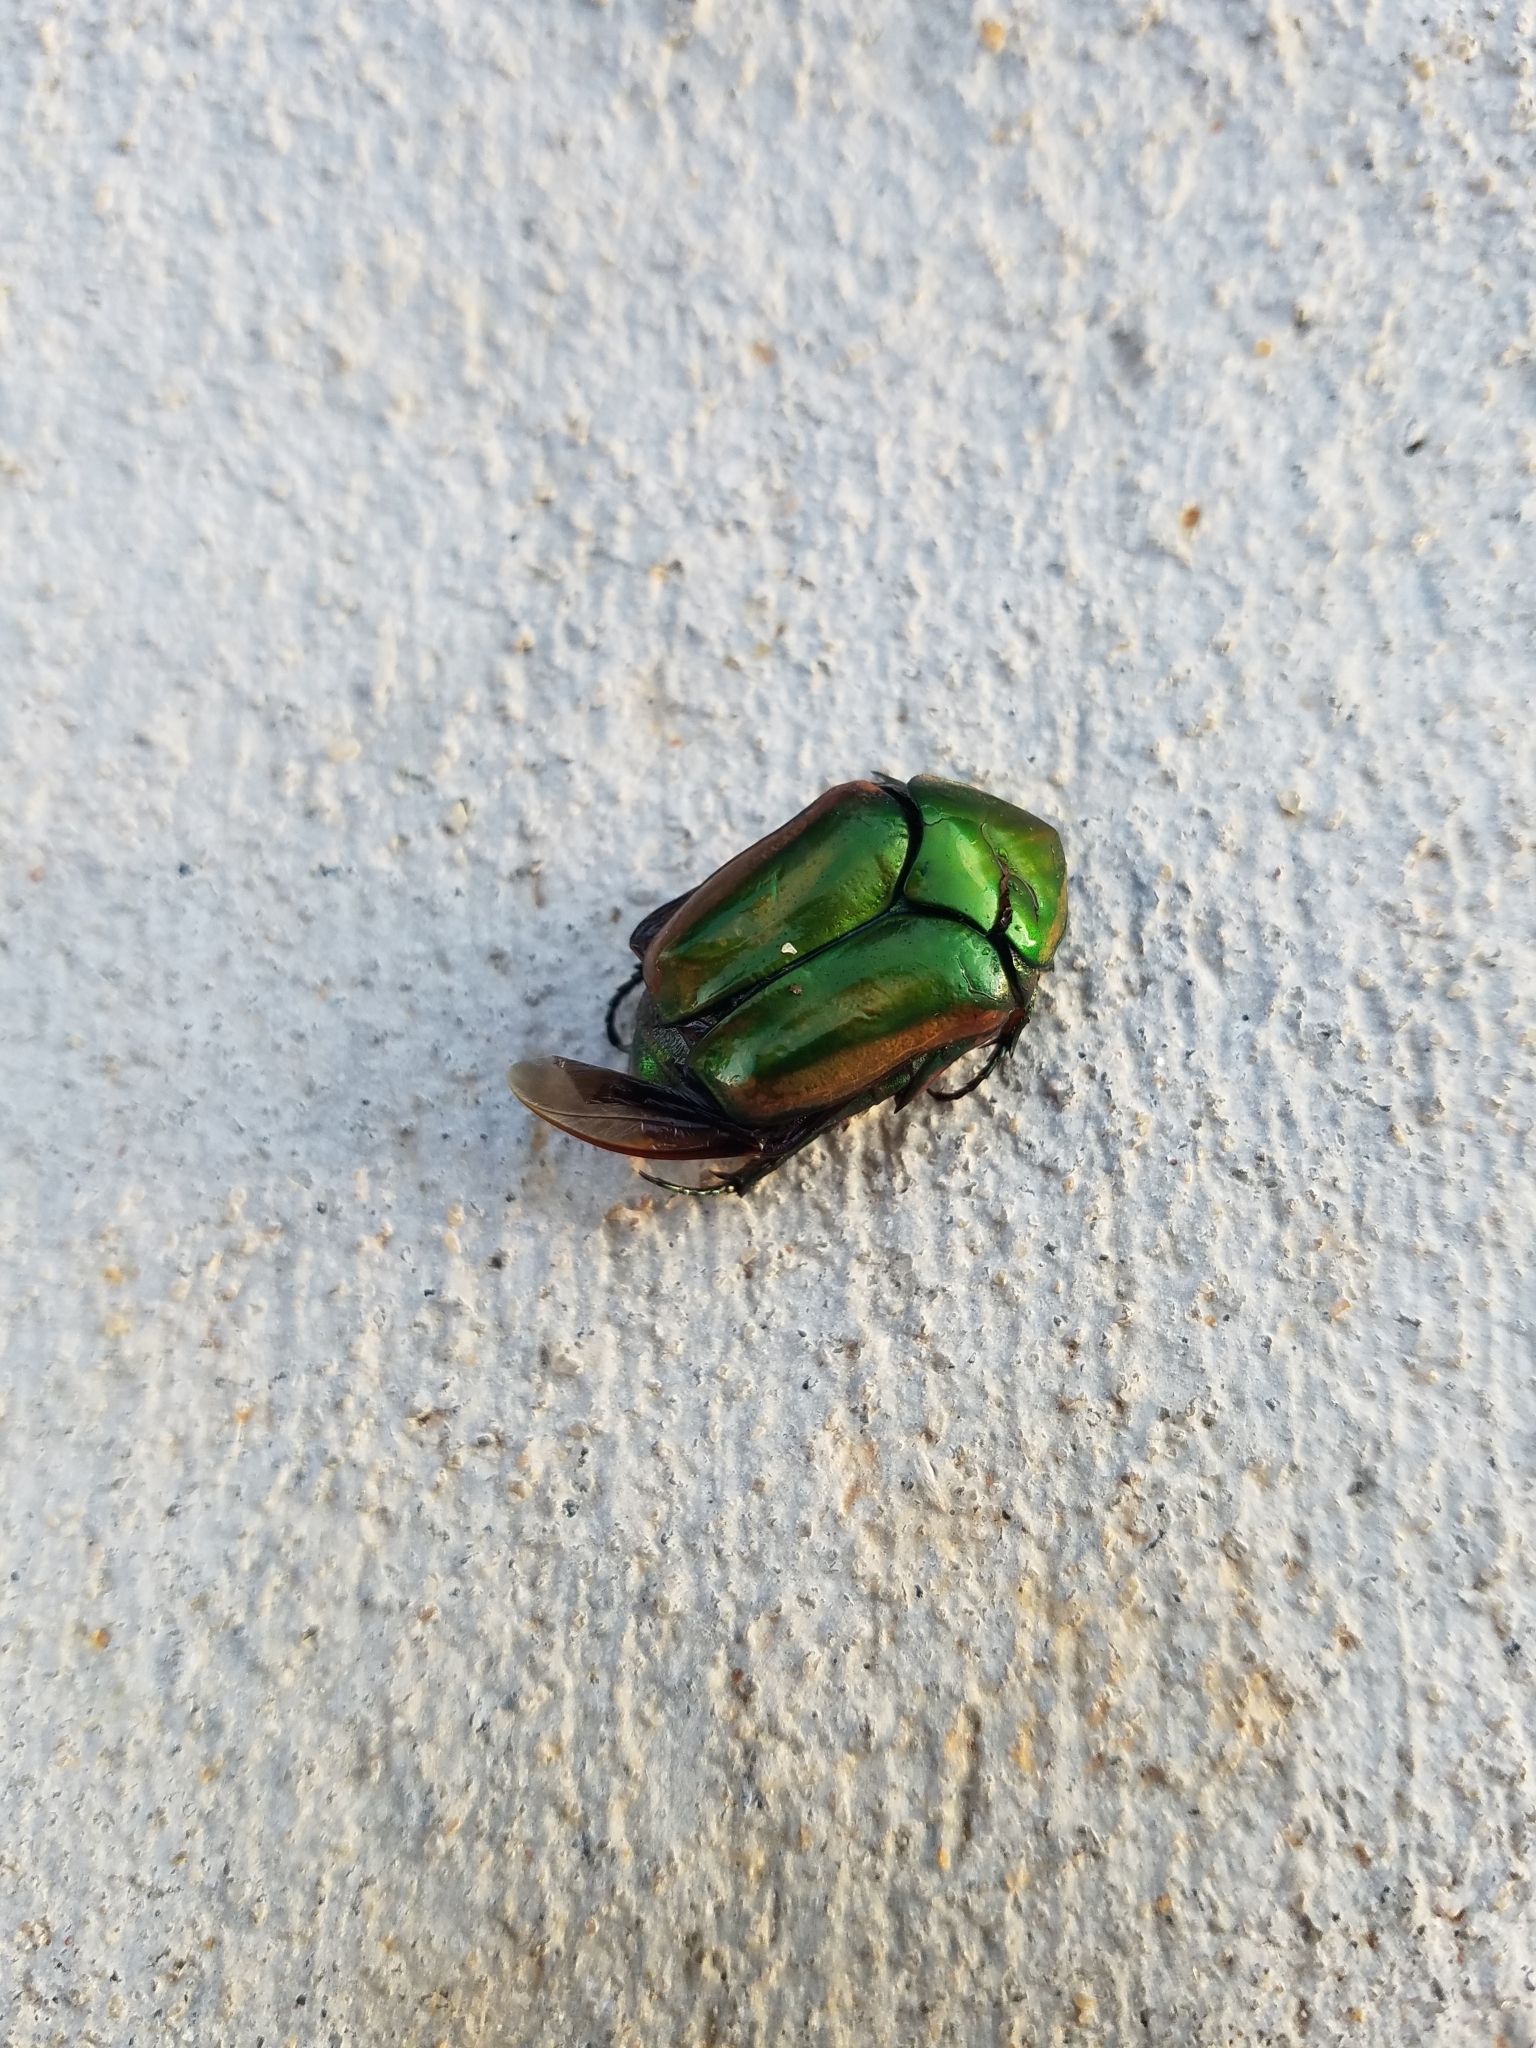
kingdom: Animalia
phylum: Arthropoda
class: Insecta
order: Coleoptera
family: Scarabaeidae
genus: Cotinis
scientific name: Cotinis nitida
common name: Common green june beetle
